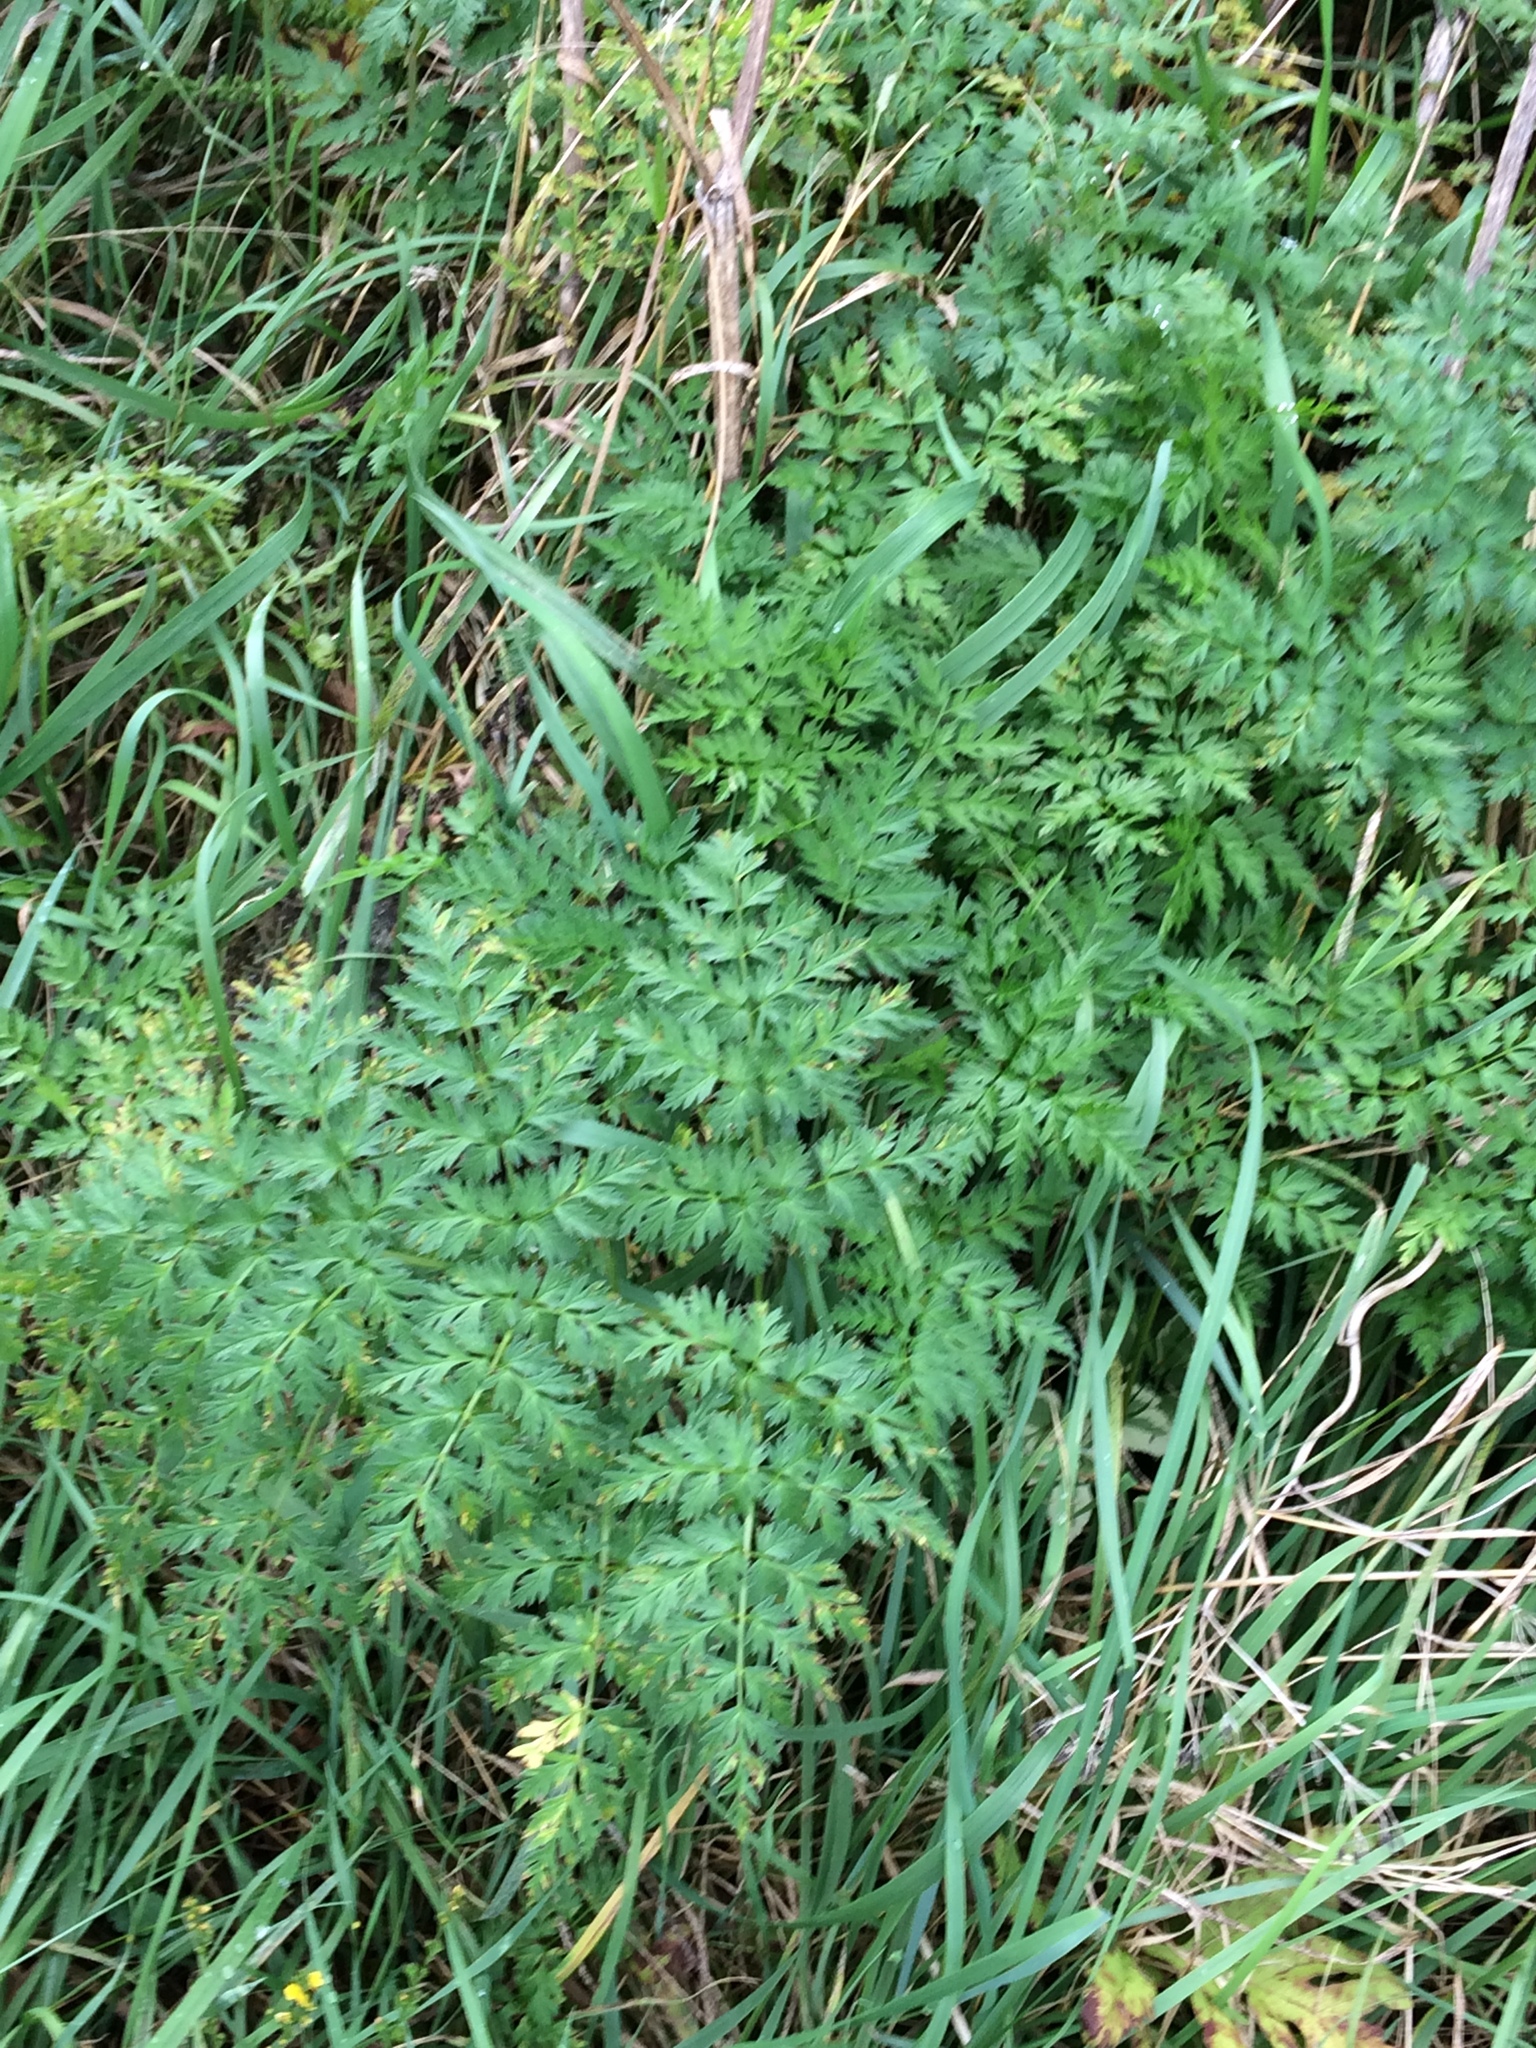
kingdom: Plantae
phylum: Tracheophyta
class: Magnoliopsida
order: Apiales
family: Apiaceae
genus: Anthriscus
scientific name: Anthriscus sylvestris
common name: Cow parsley
